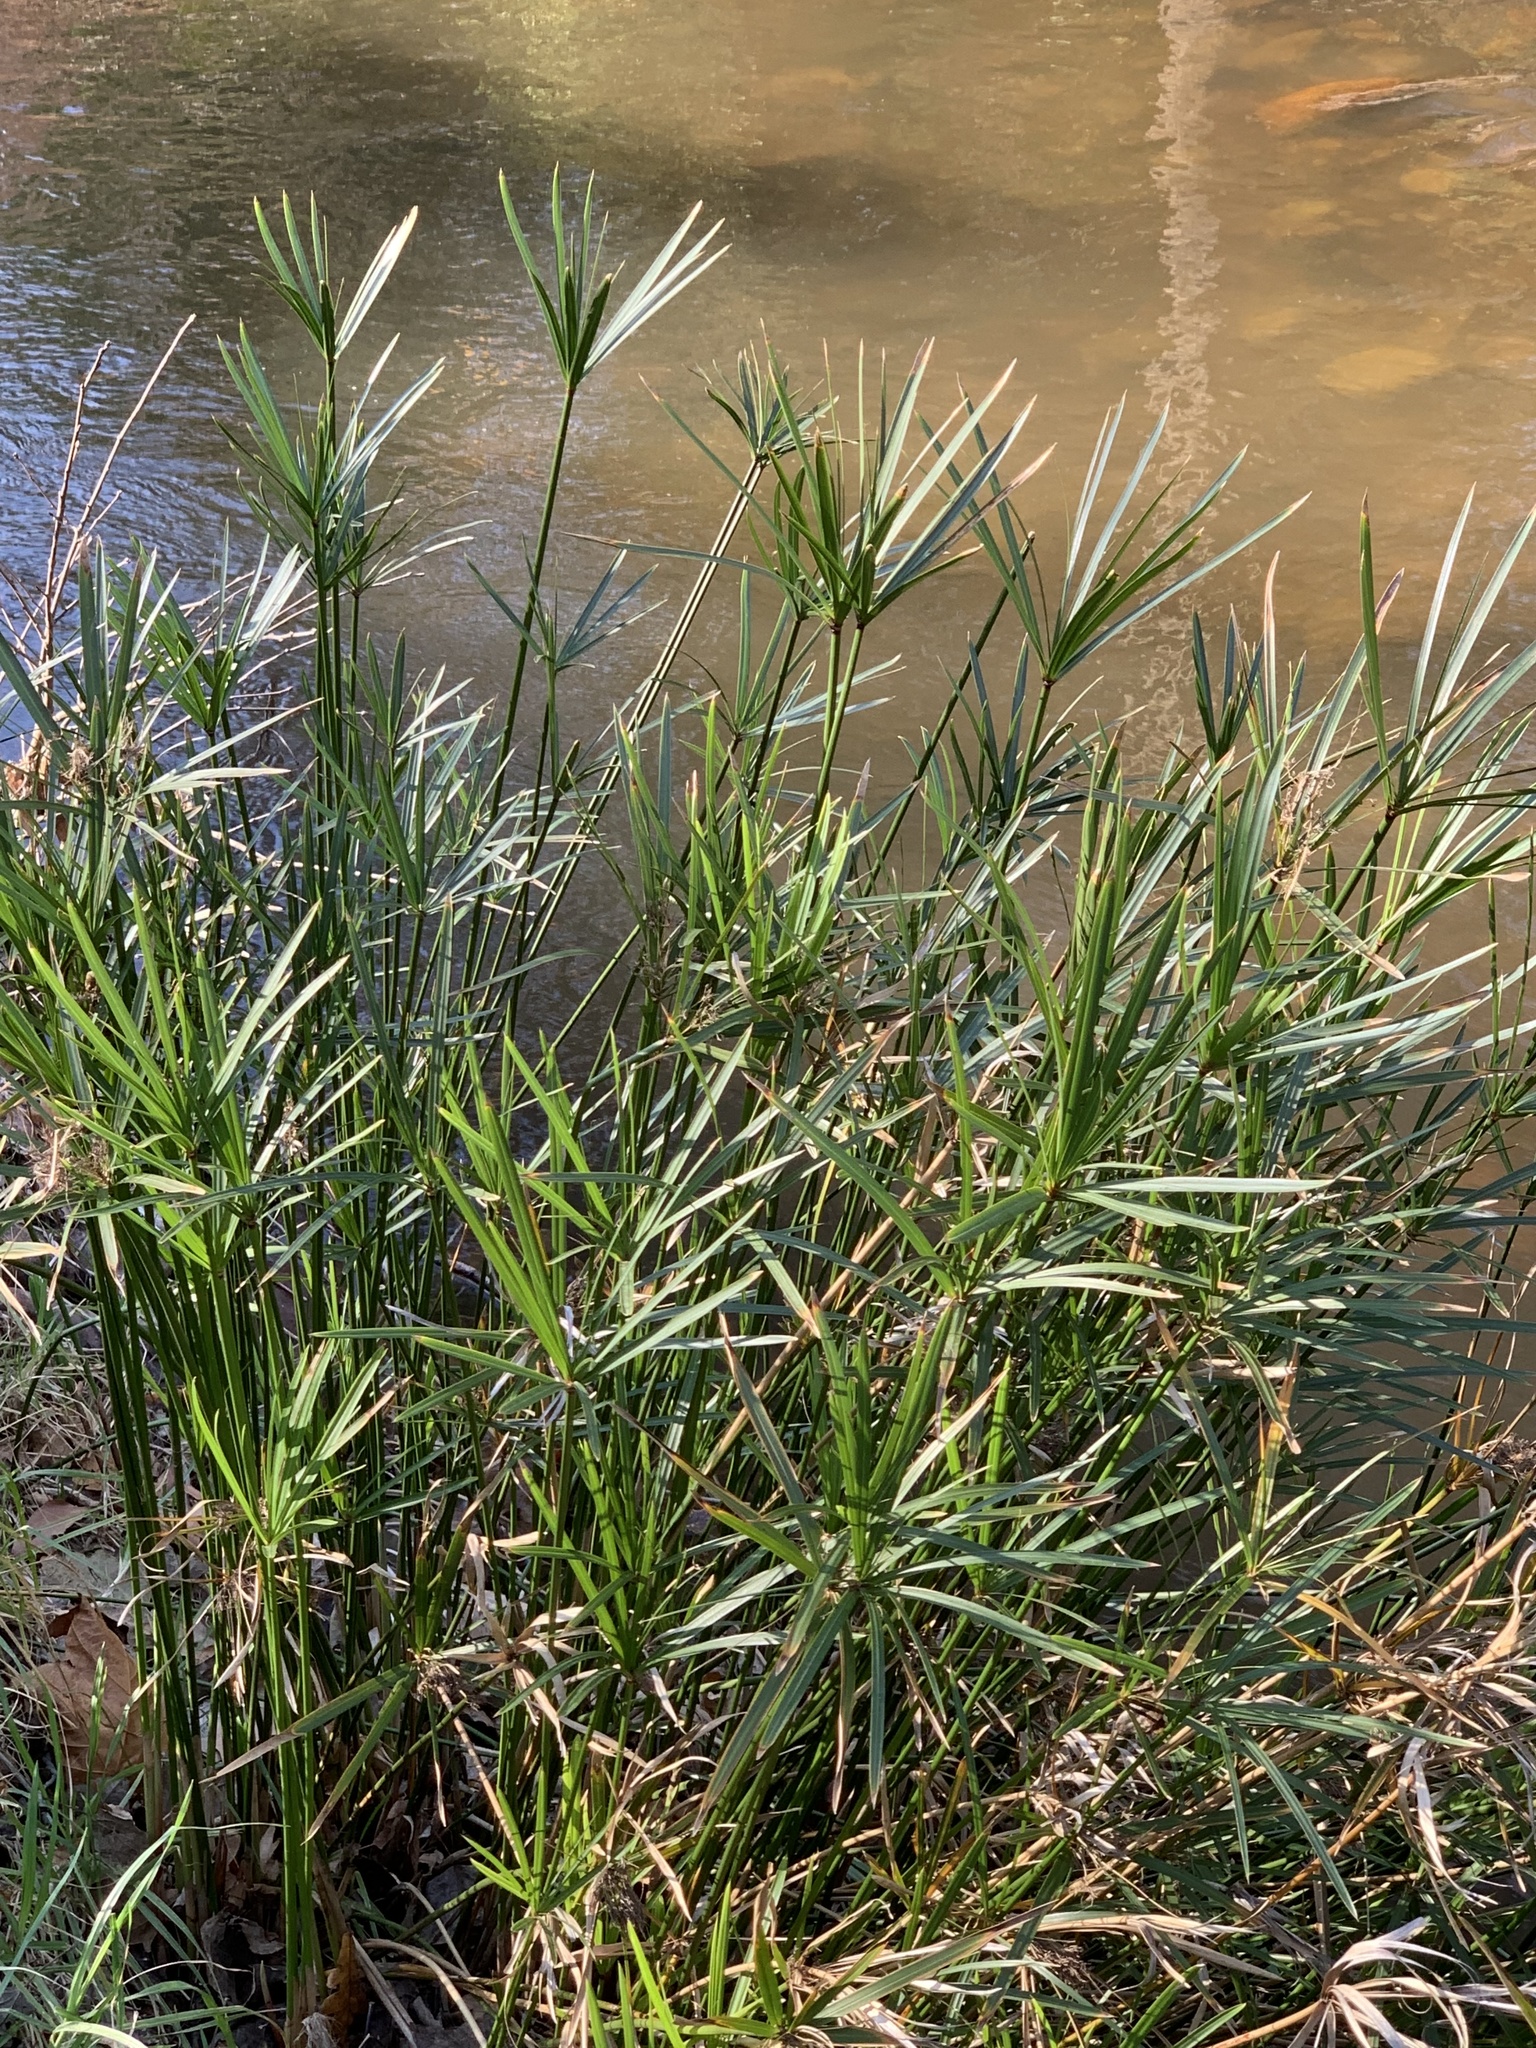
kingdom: Plantae
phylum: Tracheophyta
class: Liliopsida
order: Poales
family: Cyperaceae
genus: Cyperus
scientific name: Cyperus textilis
